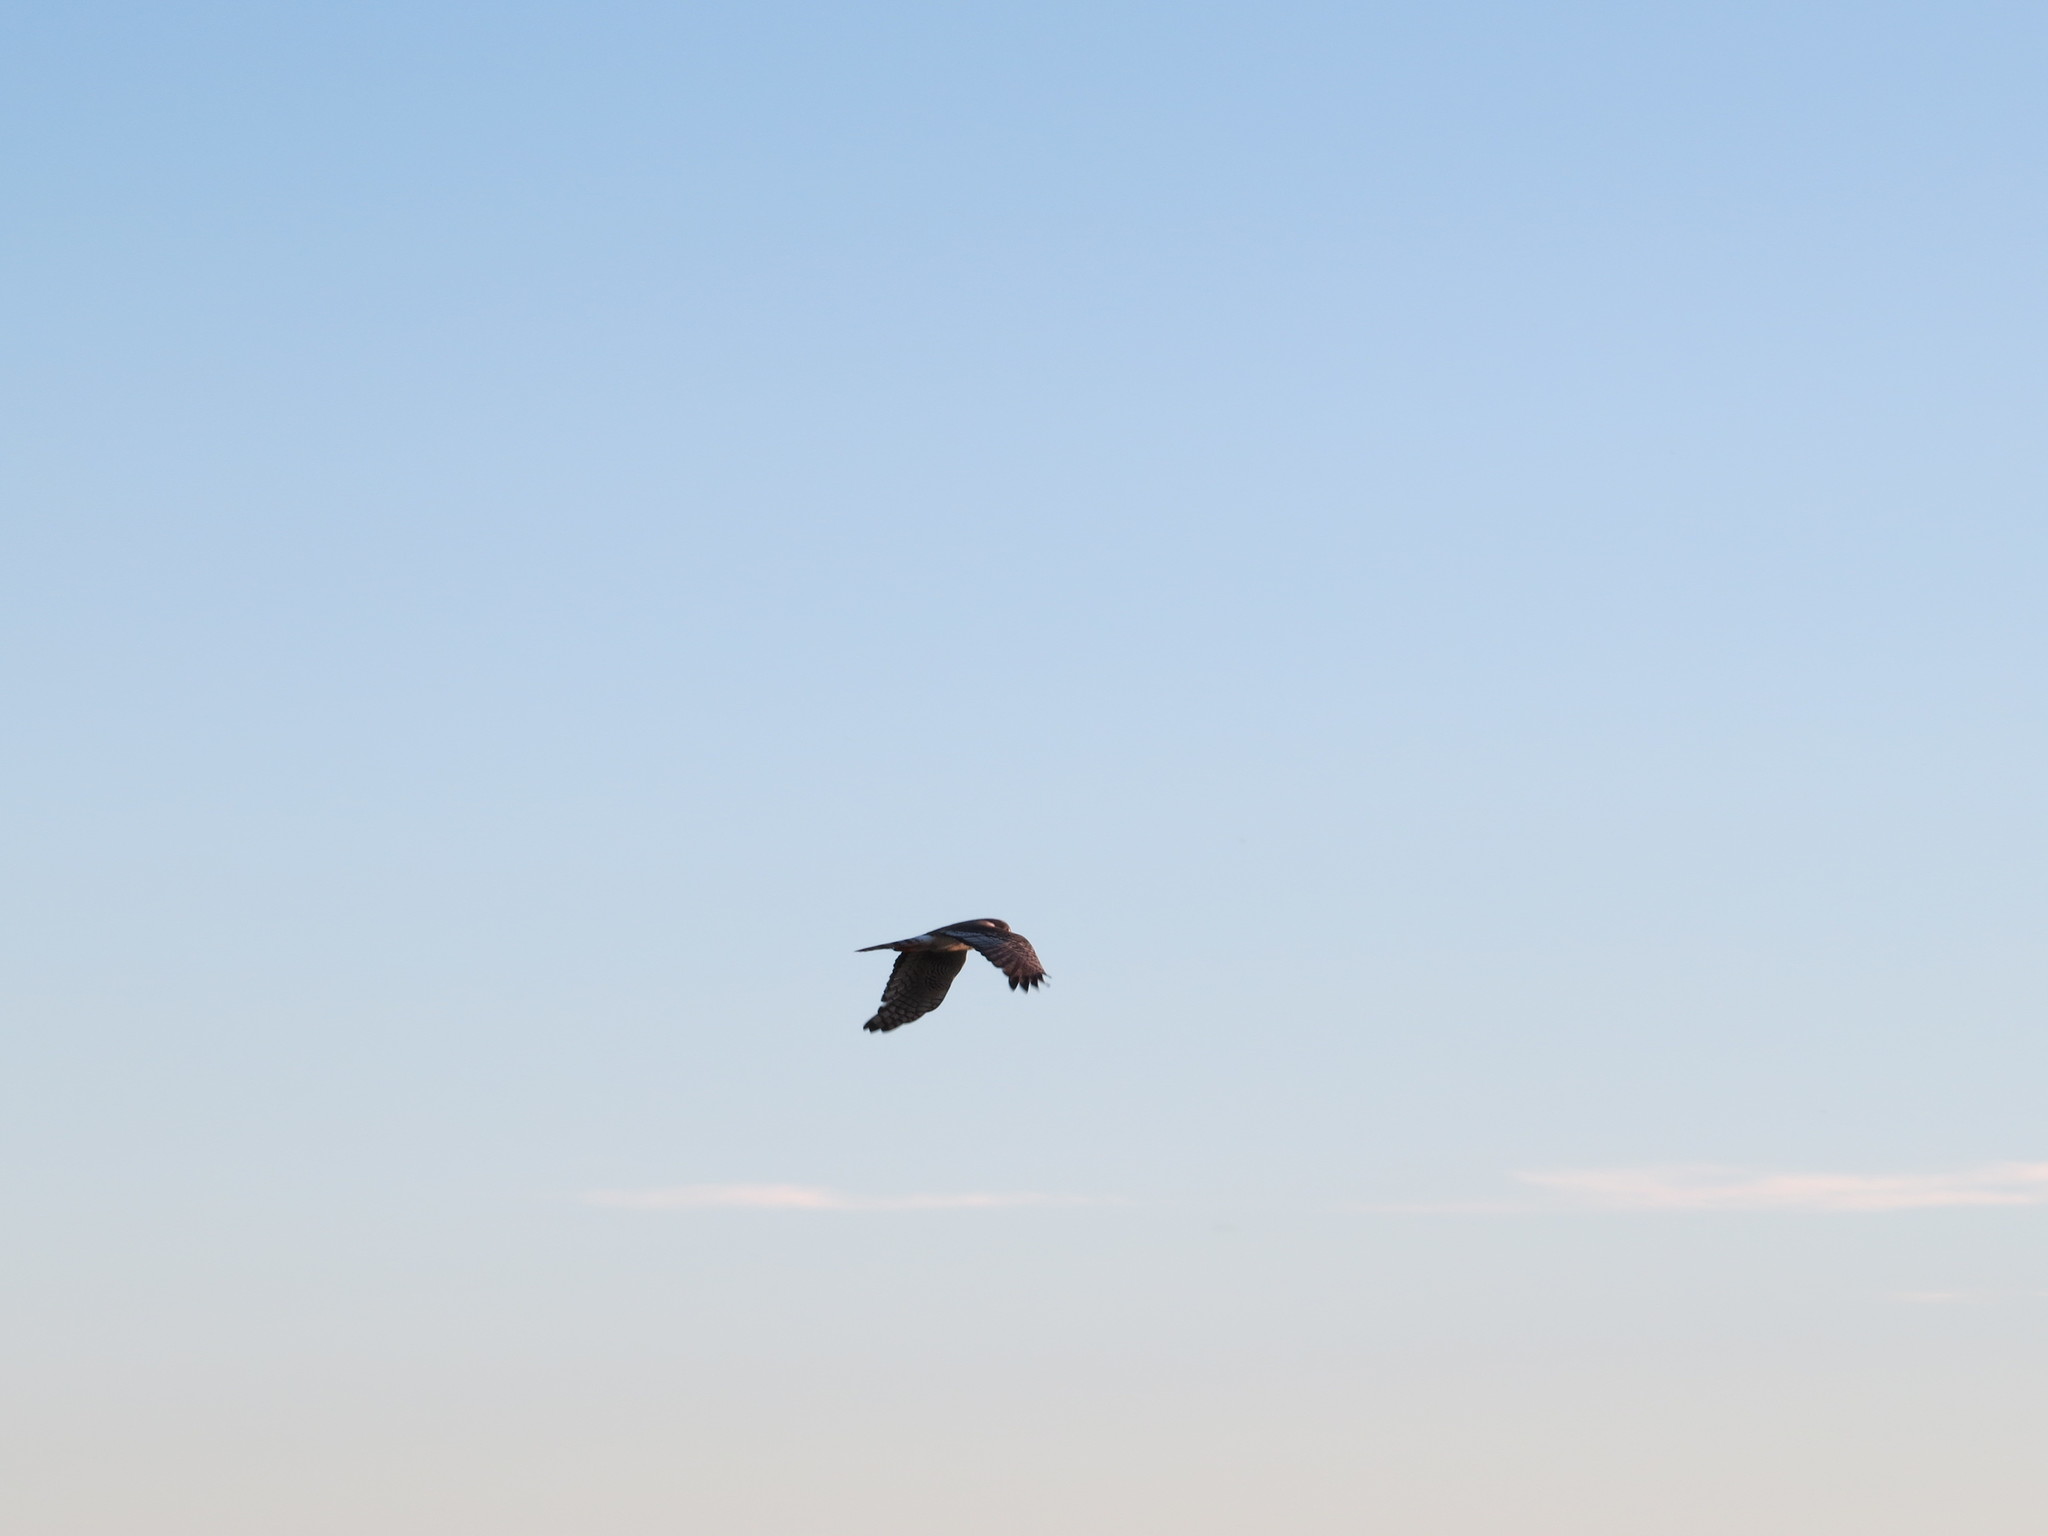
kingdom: Animalia
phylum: Chordata
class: Aves
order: Accipitriformes
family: Accipitridae
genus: Circus
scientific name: Circus buffoni
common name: Long-winged harrier
